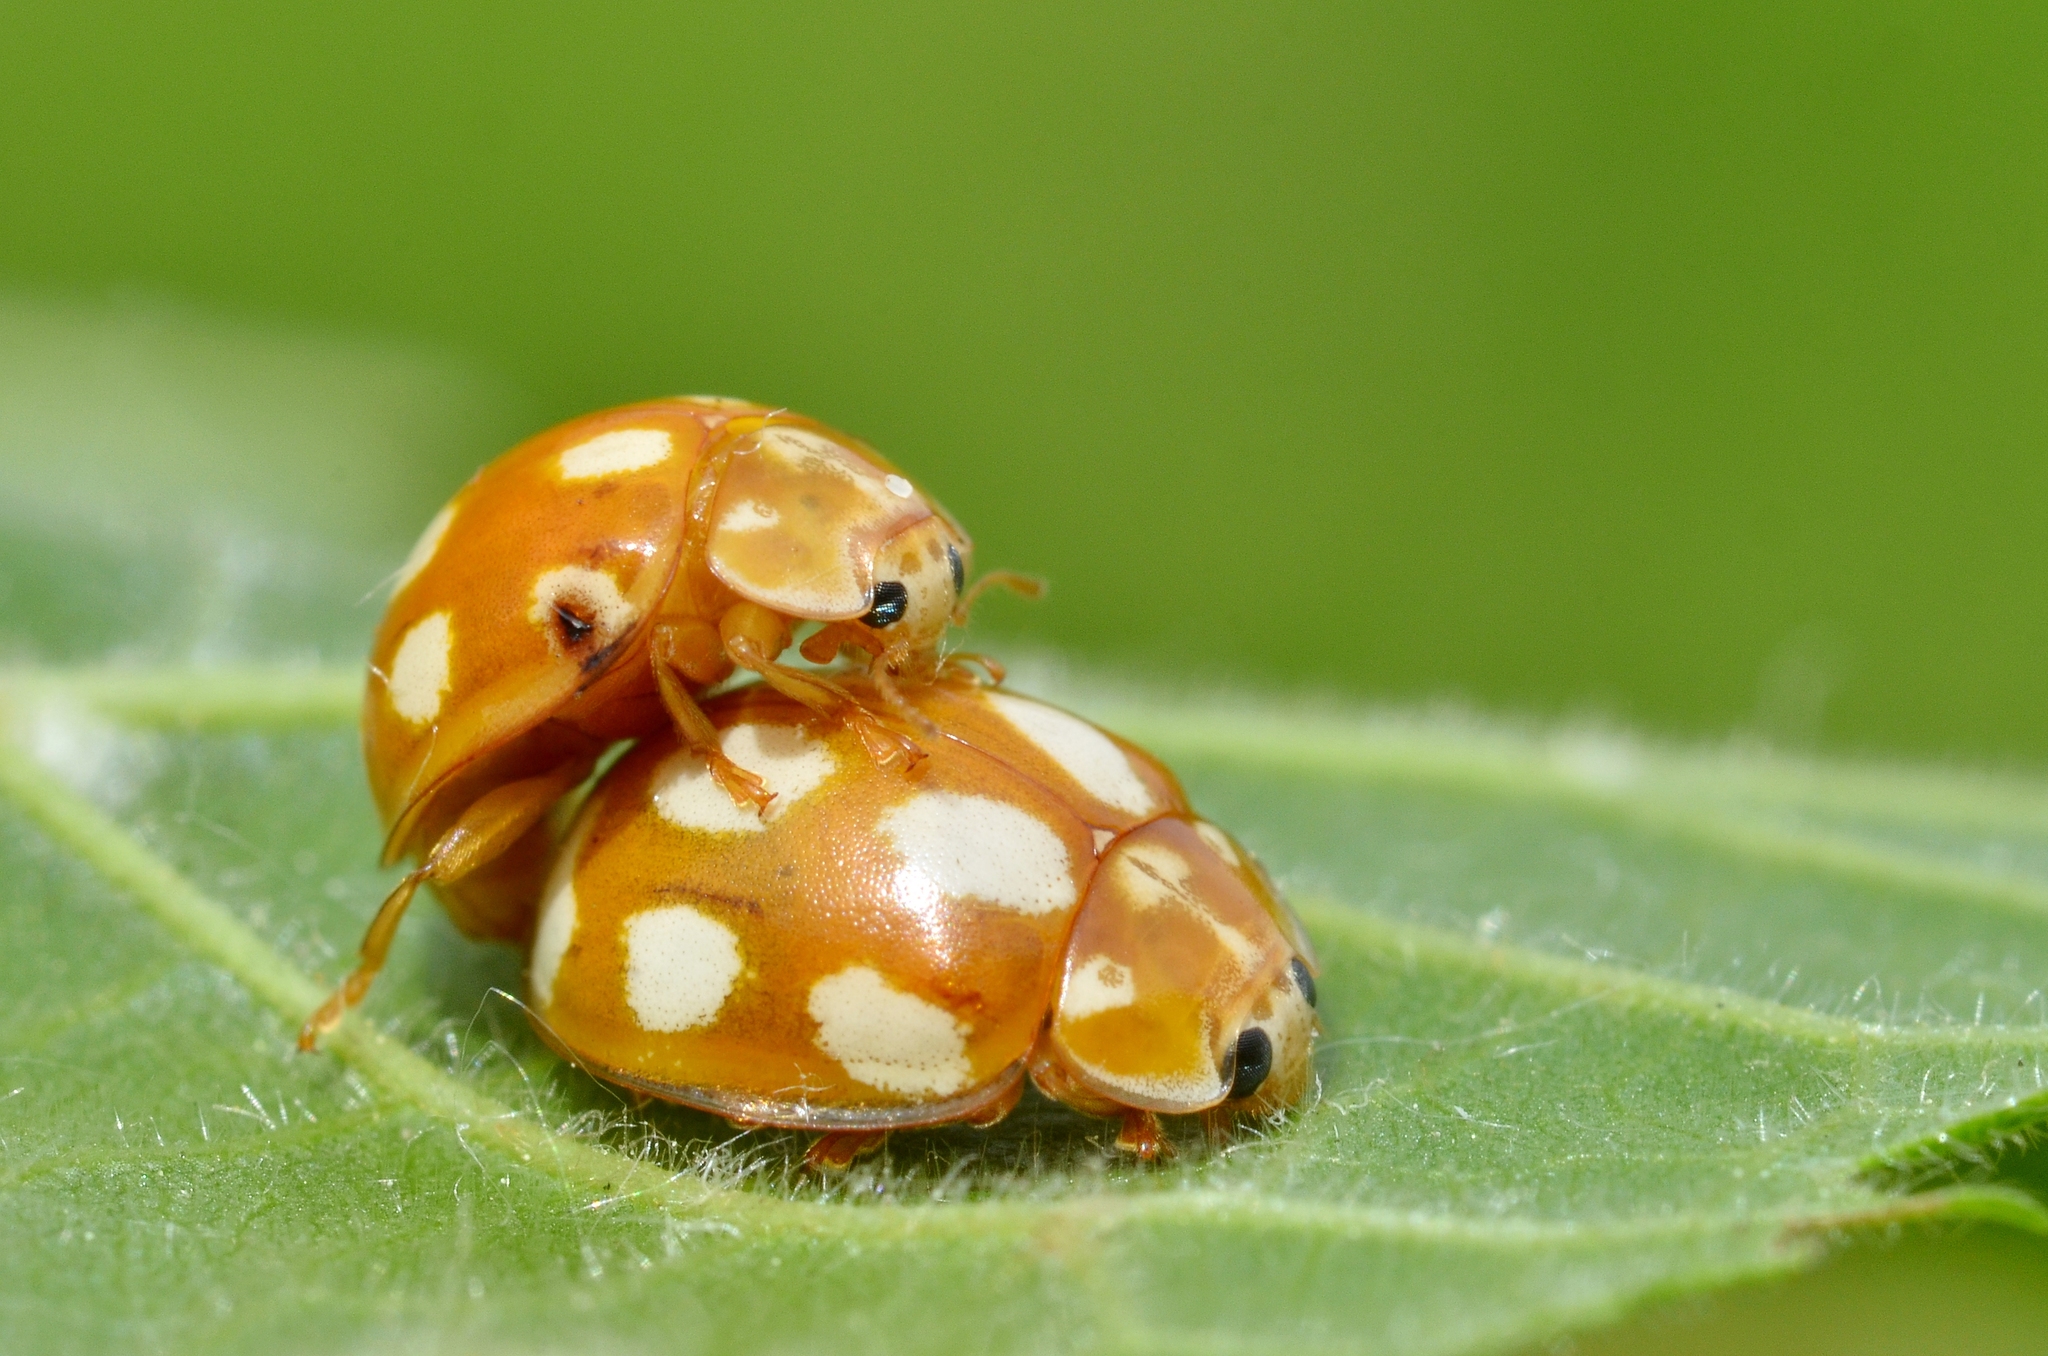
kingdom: Animalia
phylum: Arthropoda
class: Insecta
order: Coleoptera
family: Coccinellidae
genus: Calvia
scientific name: Calvia decemguttata
